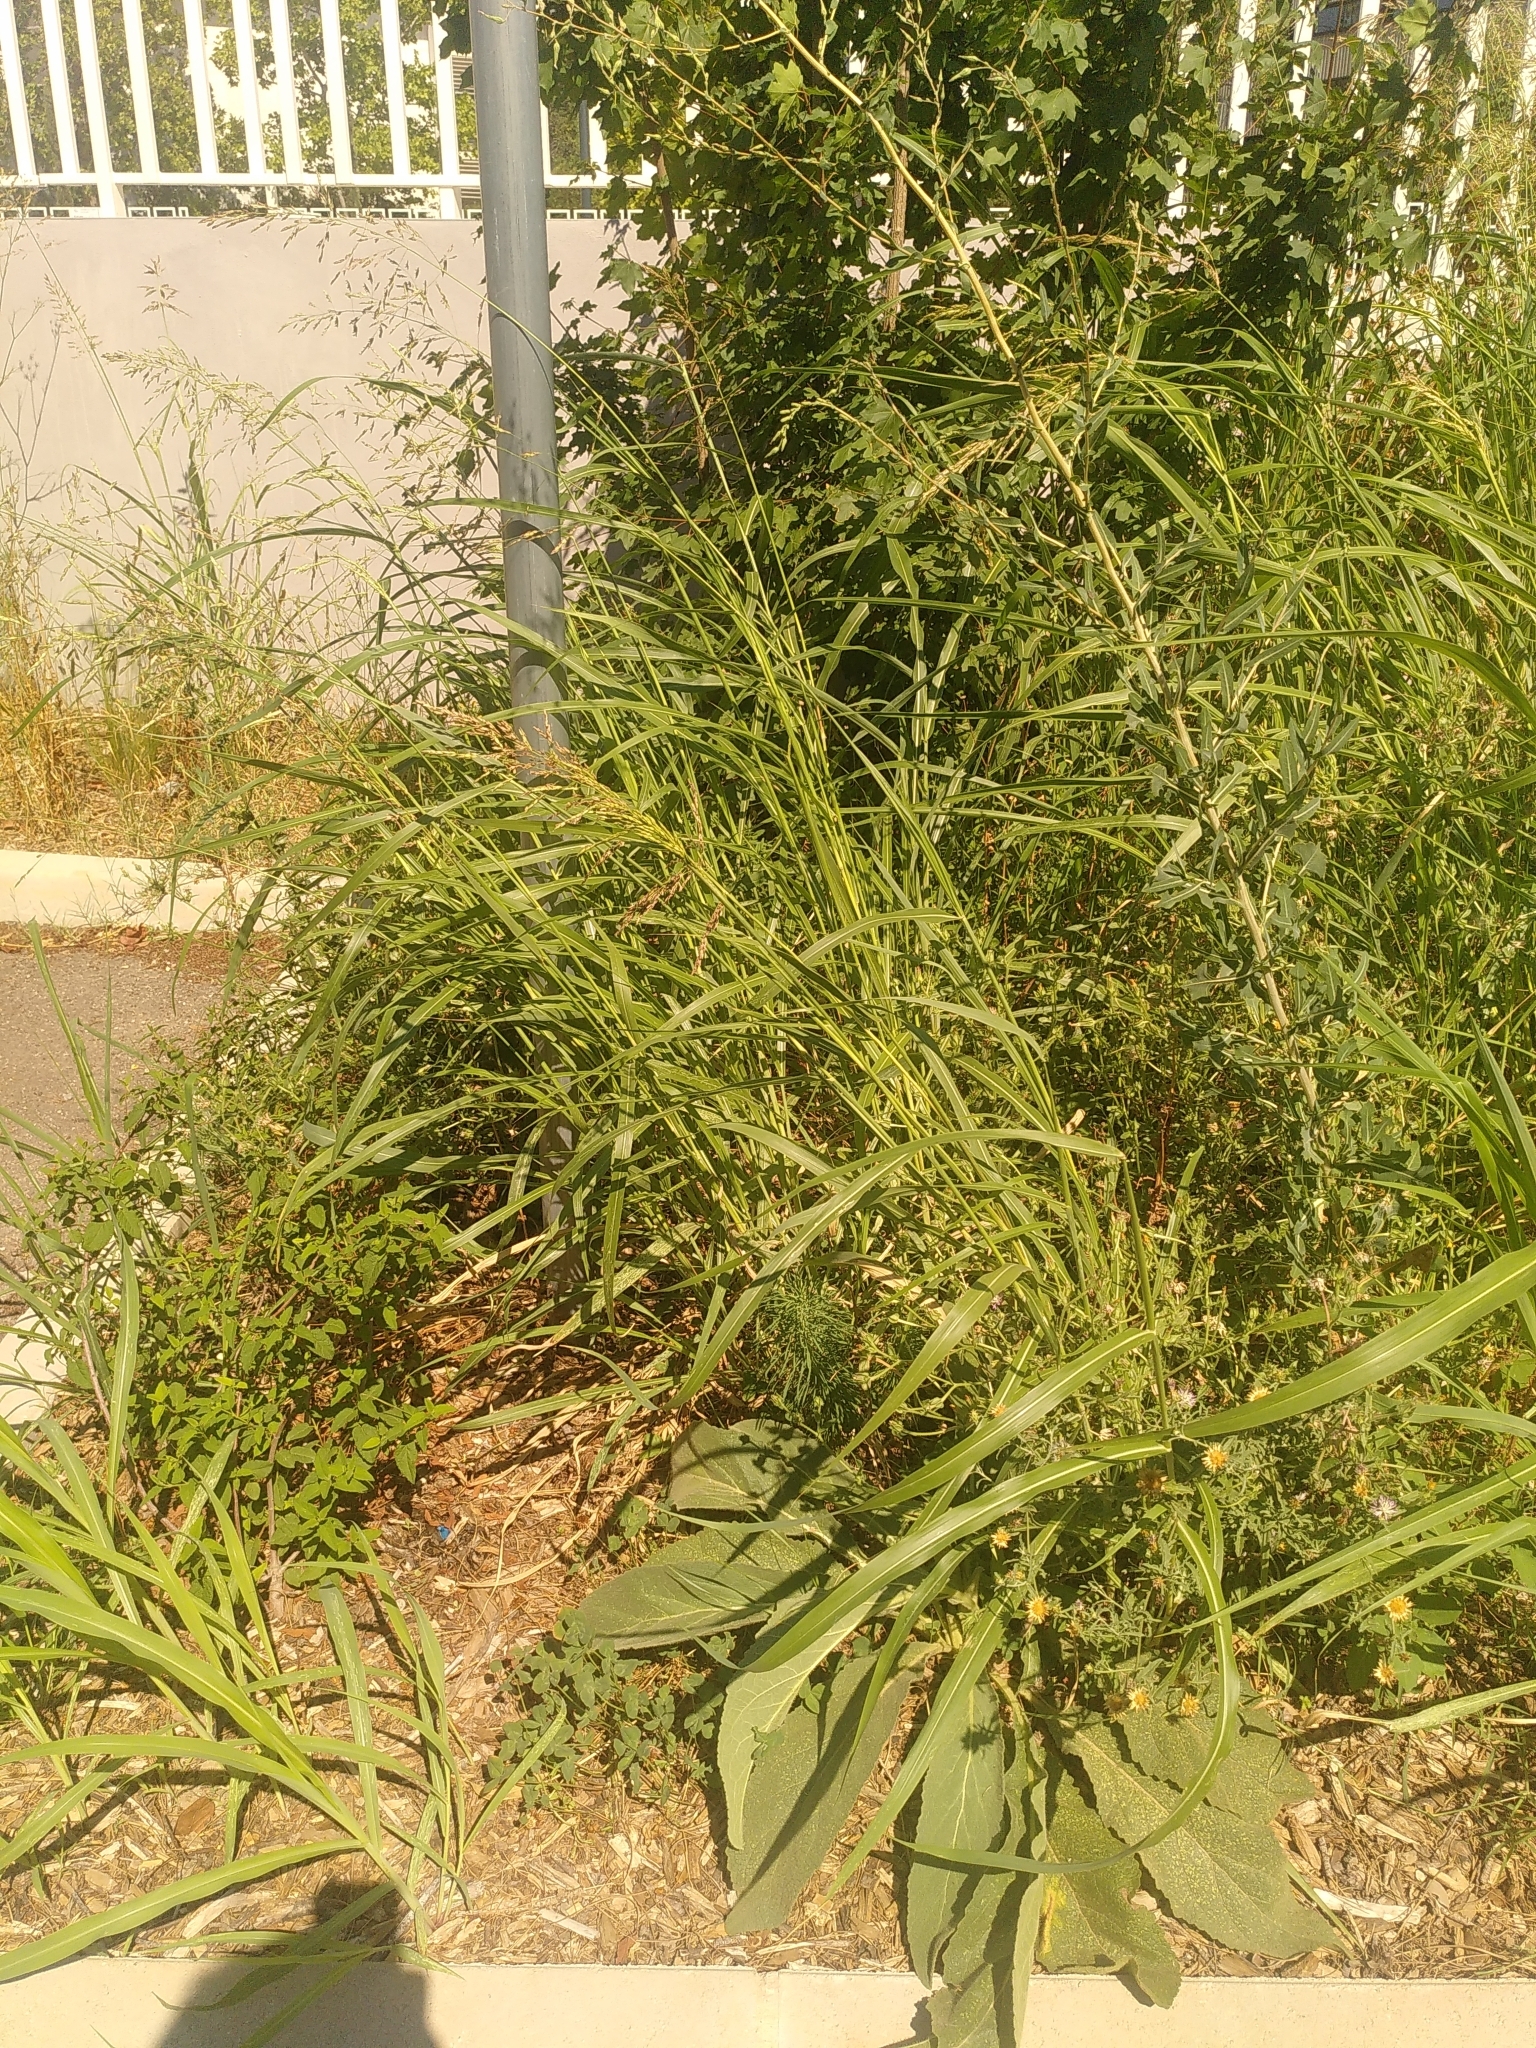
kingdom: Plantae
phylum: Tracheophyta
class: Liliopsida
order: Poales
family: Poaceae
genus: Sorghum
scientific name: Sorghum halepense
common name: Johnson-grass
